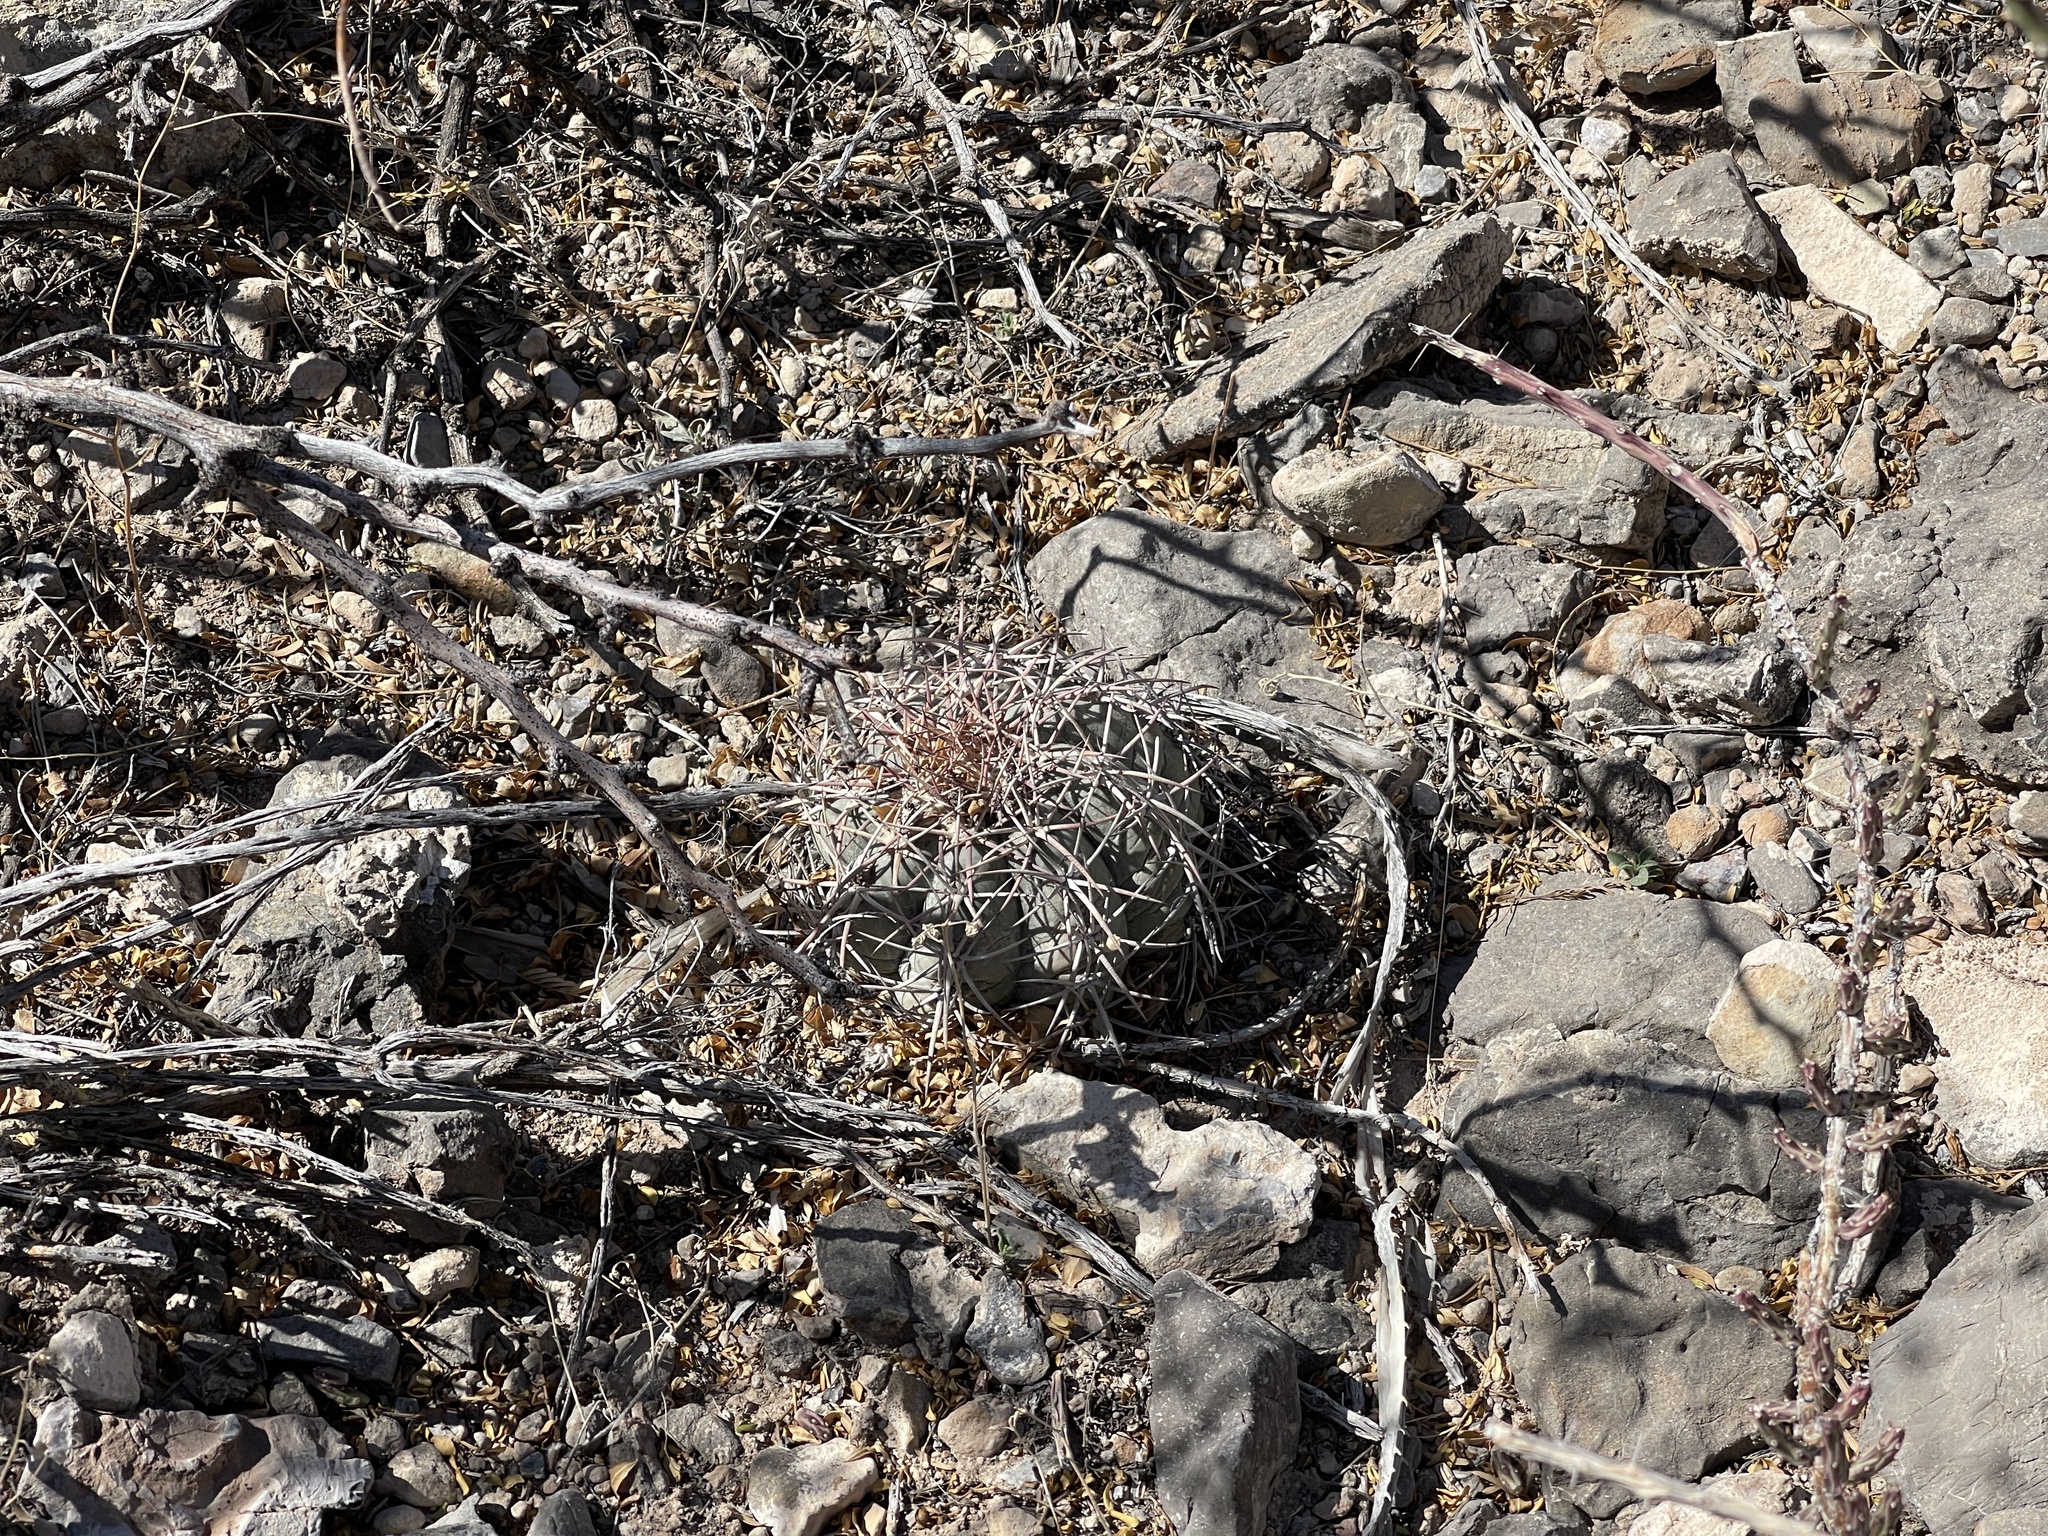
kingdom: Plantae
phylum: Tracheophyta
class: Magnoliopsida
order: Caryophyllales
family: Cactaceae
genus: Echinocactus
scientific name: Echinocactus horizonthalonius
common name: Devilshead
